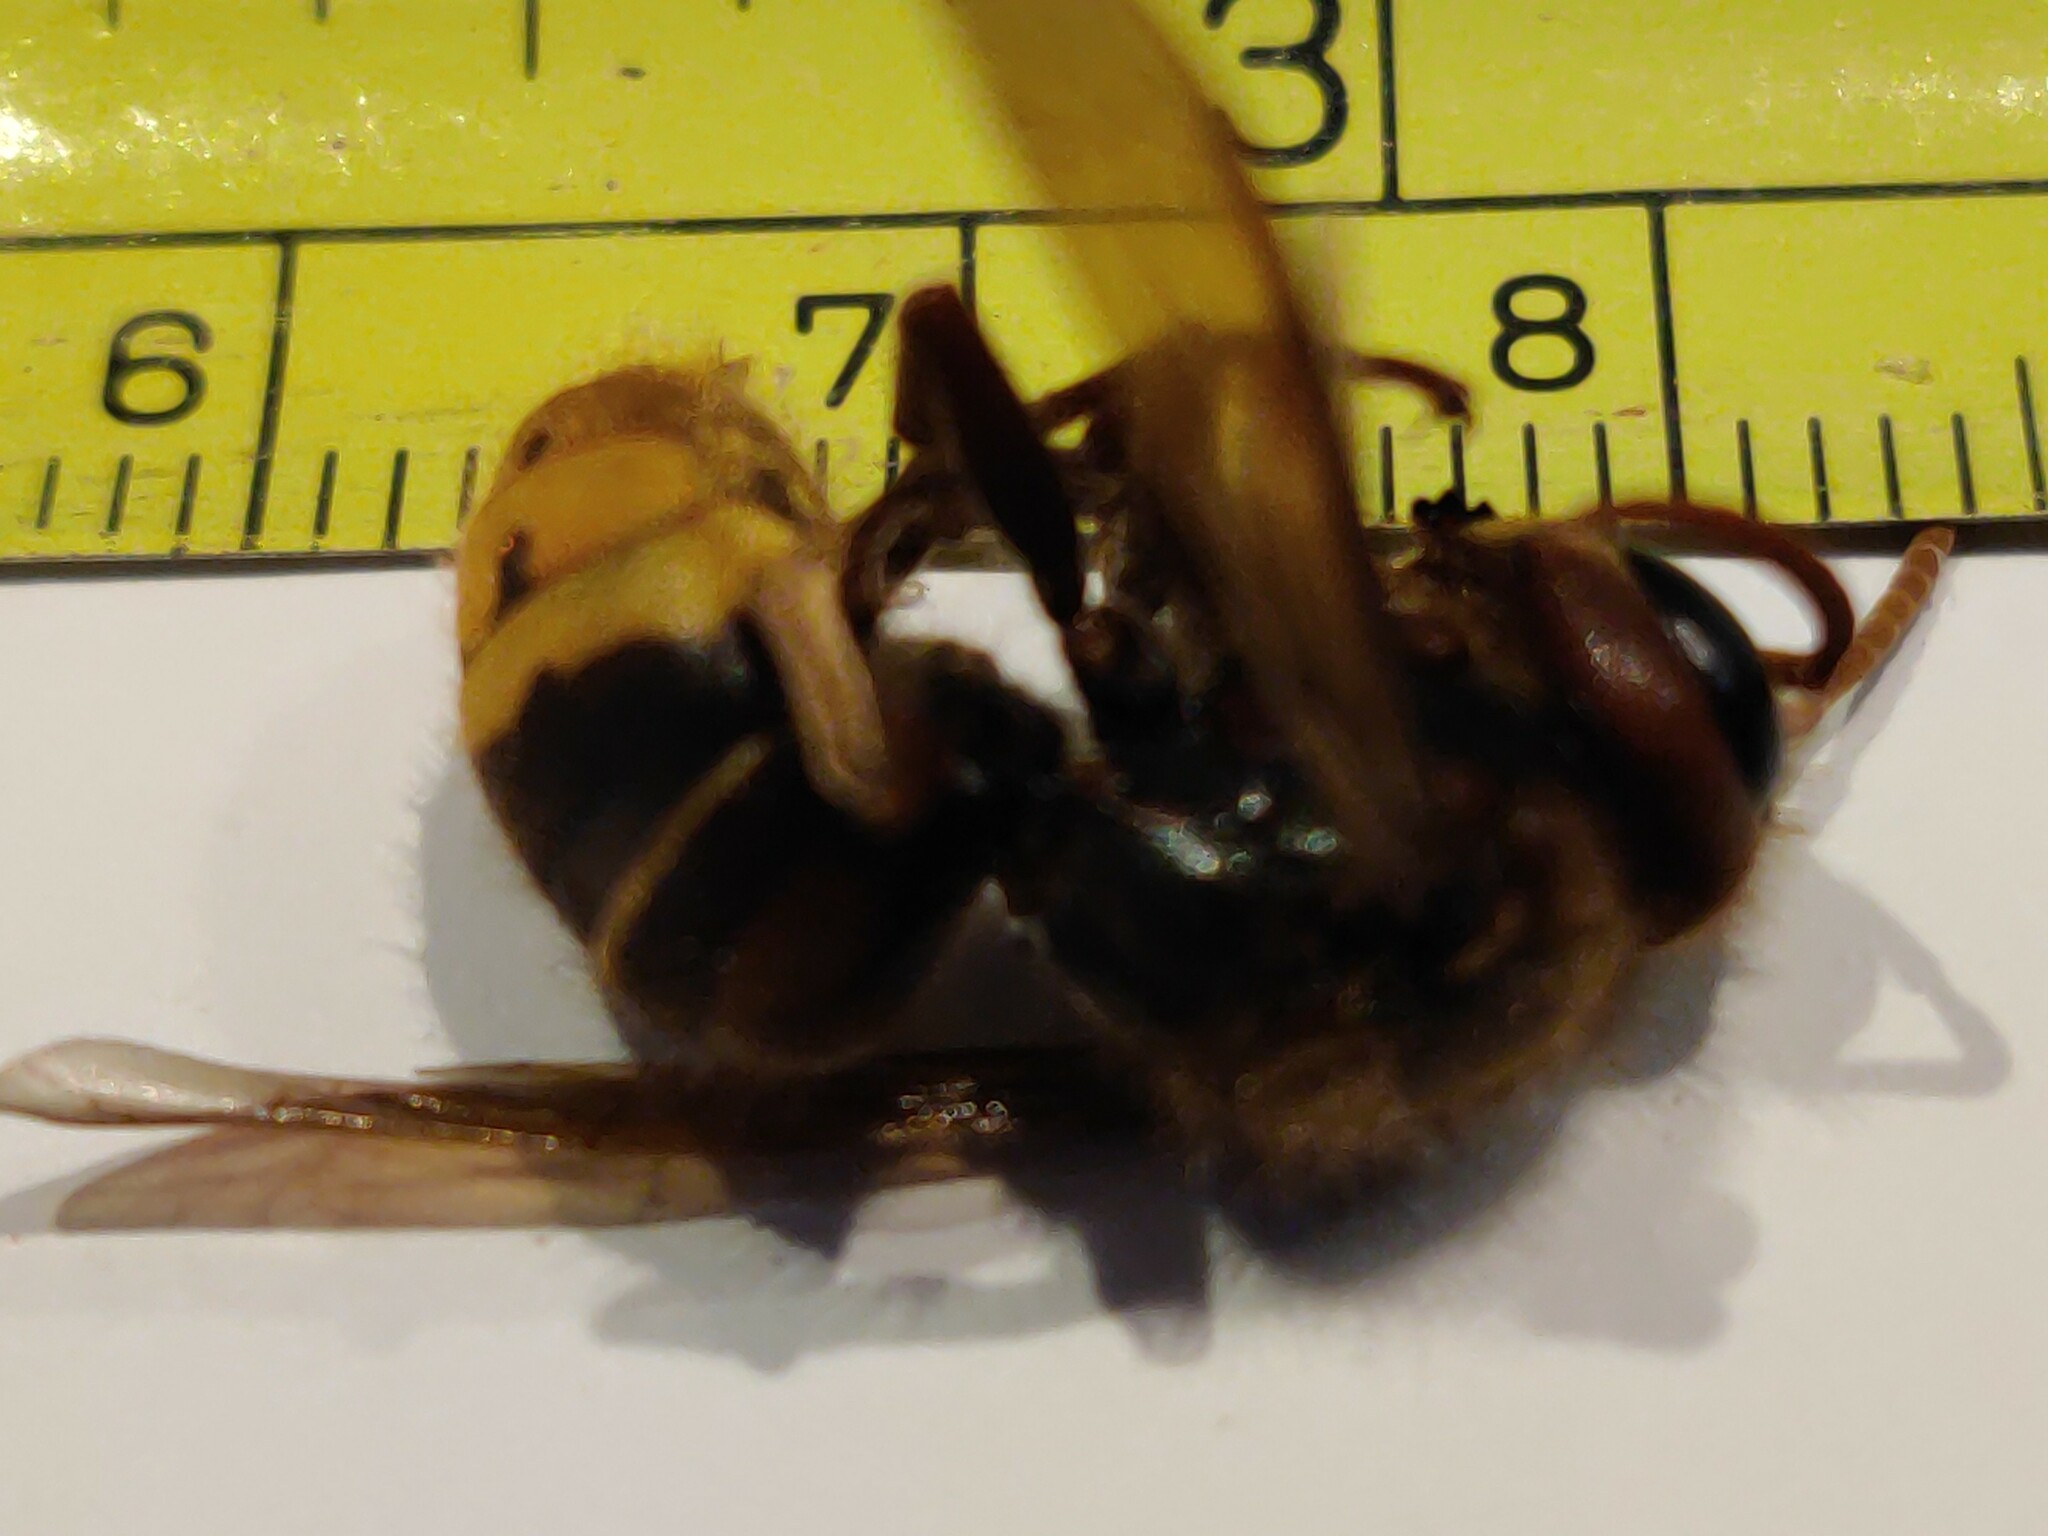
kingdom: Animalia
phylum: Arthropoda
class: Insecta
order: Hymenoptera
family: Vespidae
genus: Vespa
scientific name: Vespa crabro
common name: Hornet
